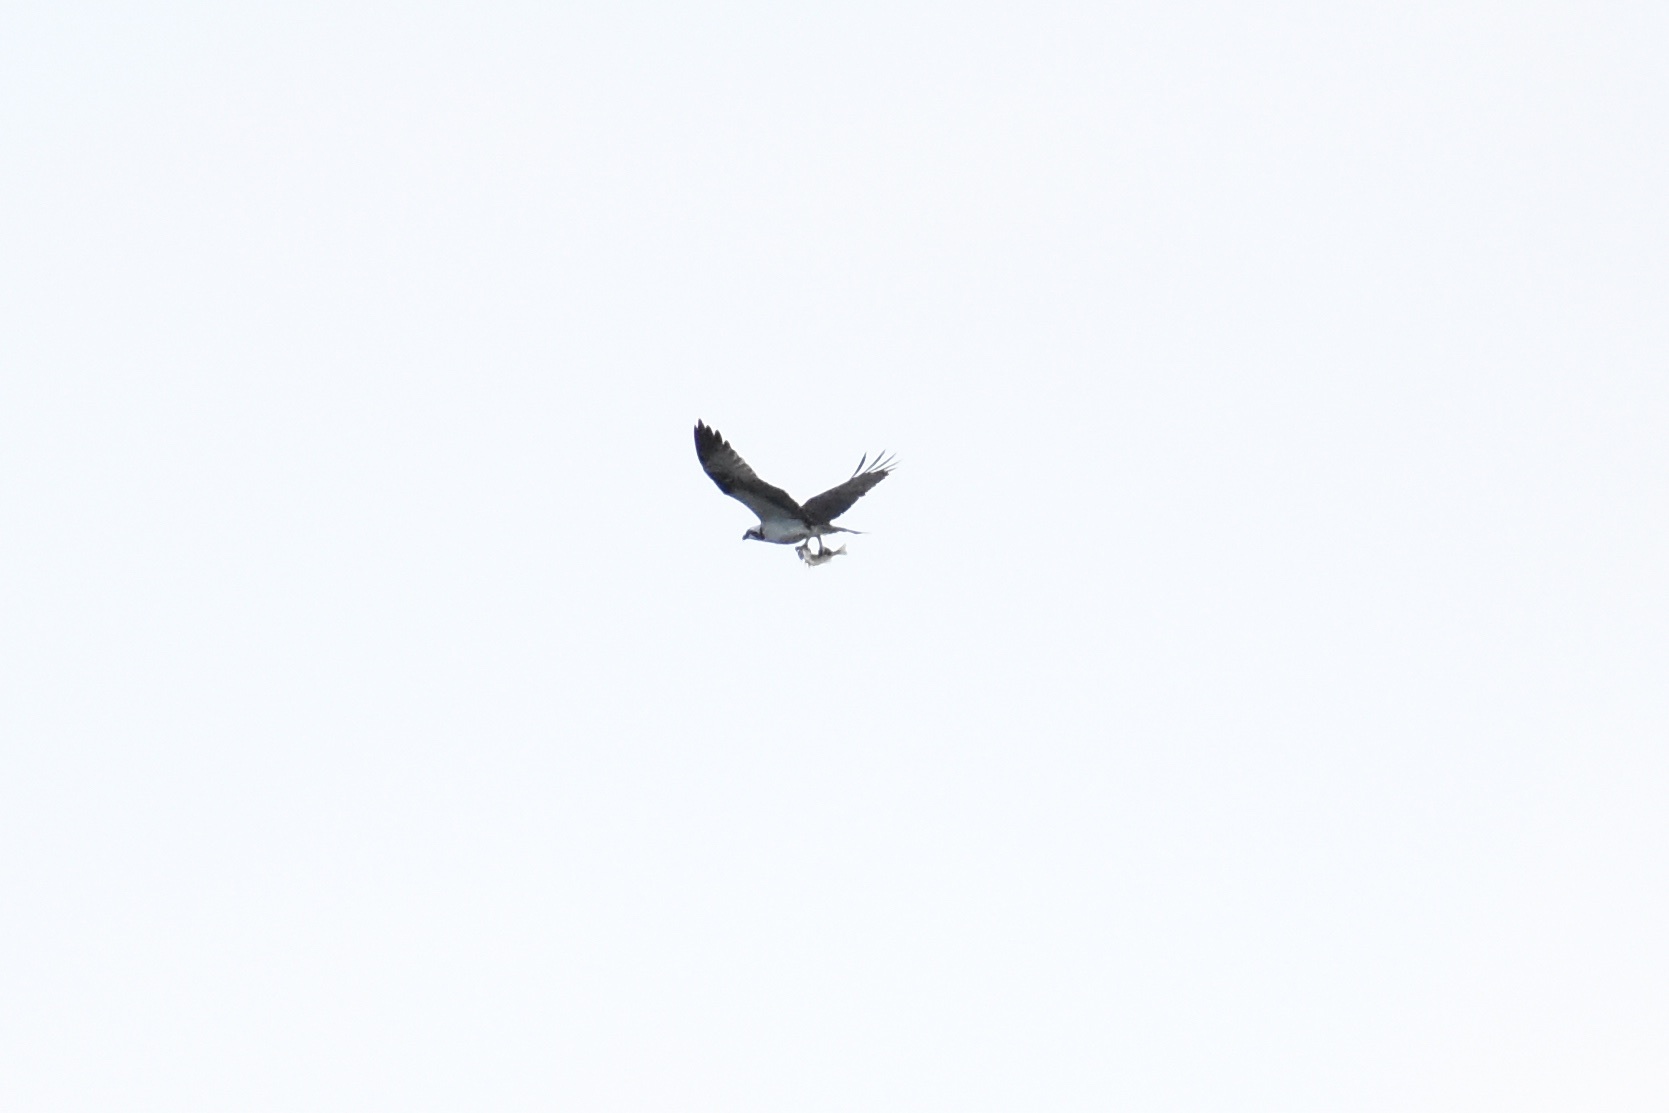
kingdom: Animalia
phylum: Chordata
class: Aves
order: Accipitriformes
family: Pandionidae
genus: Pandion
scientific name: Pandion haliaetus
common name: Osprey
